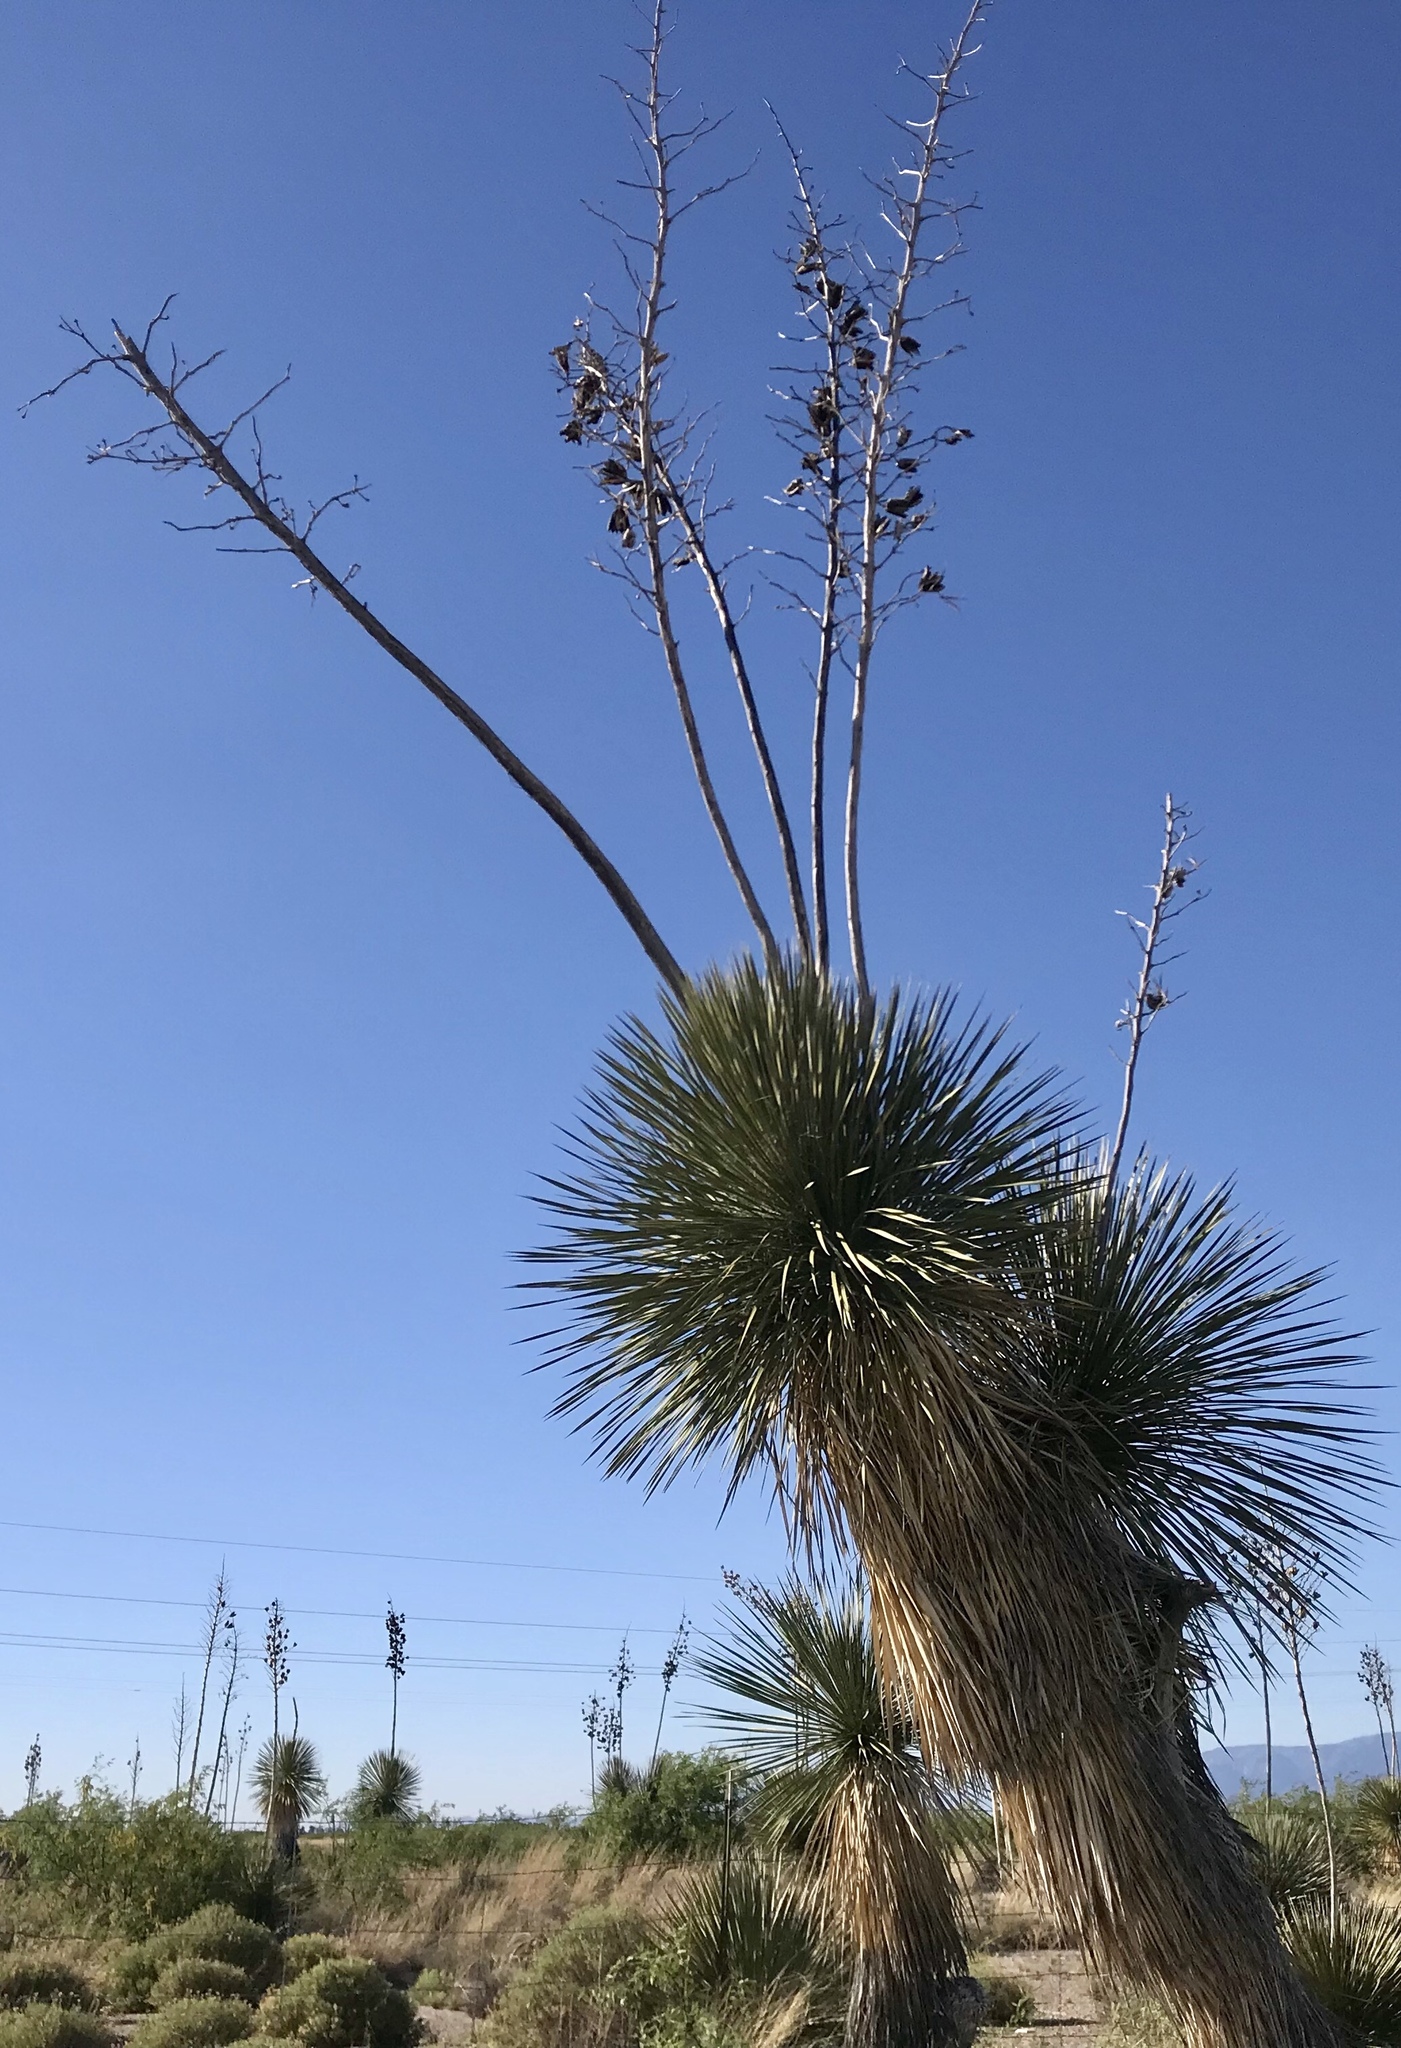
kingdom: Plantae
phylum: Tracheophyta
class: Liliopsida
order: Asparagales
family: Asparagaceae
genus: Yucca
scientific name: Yucca elata
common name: Palmella
